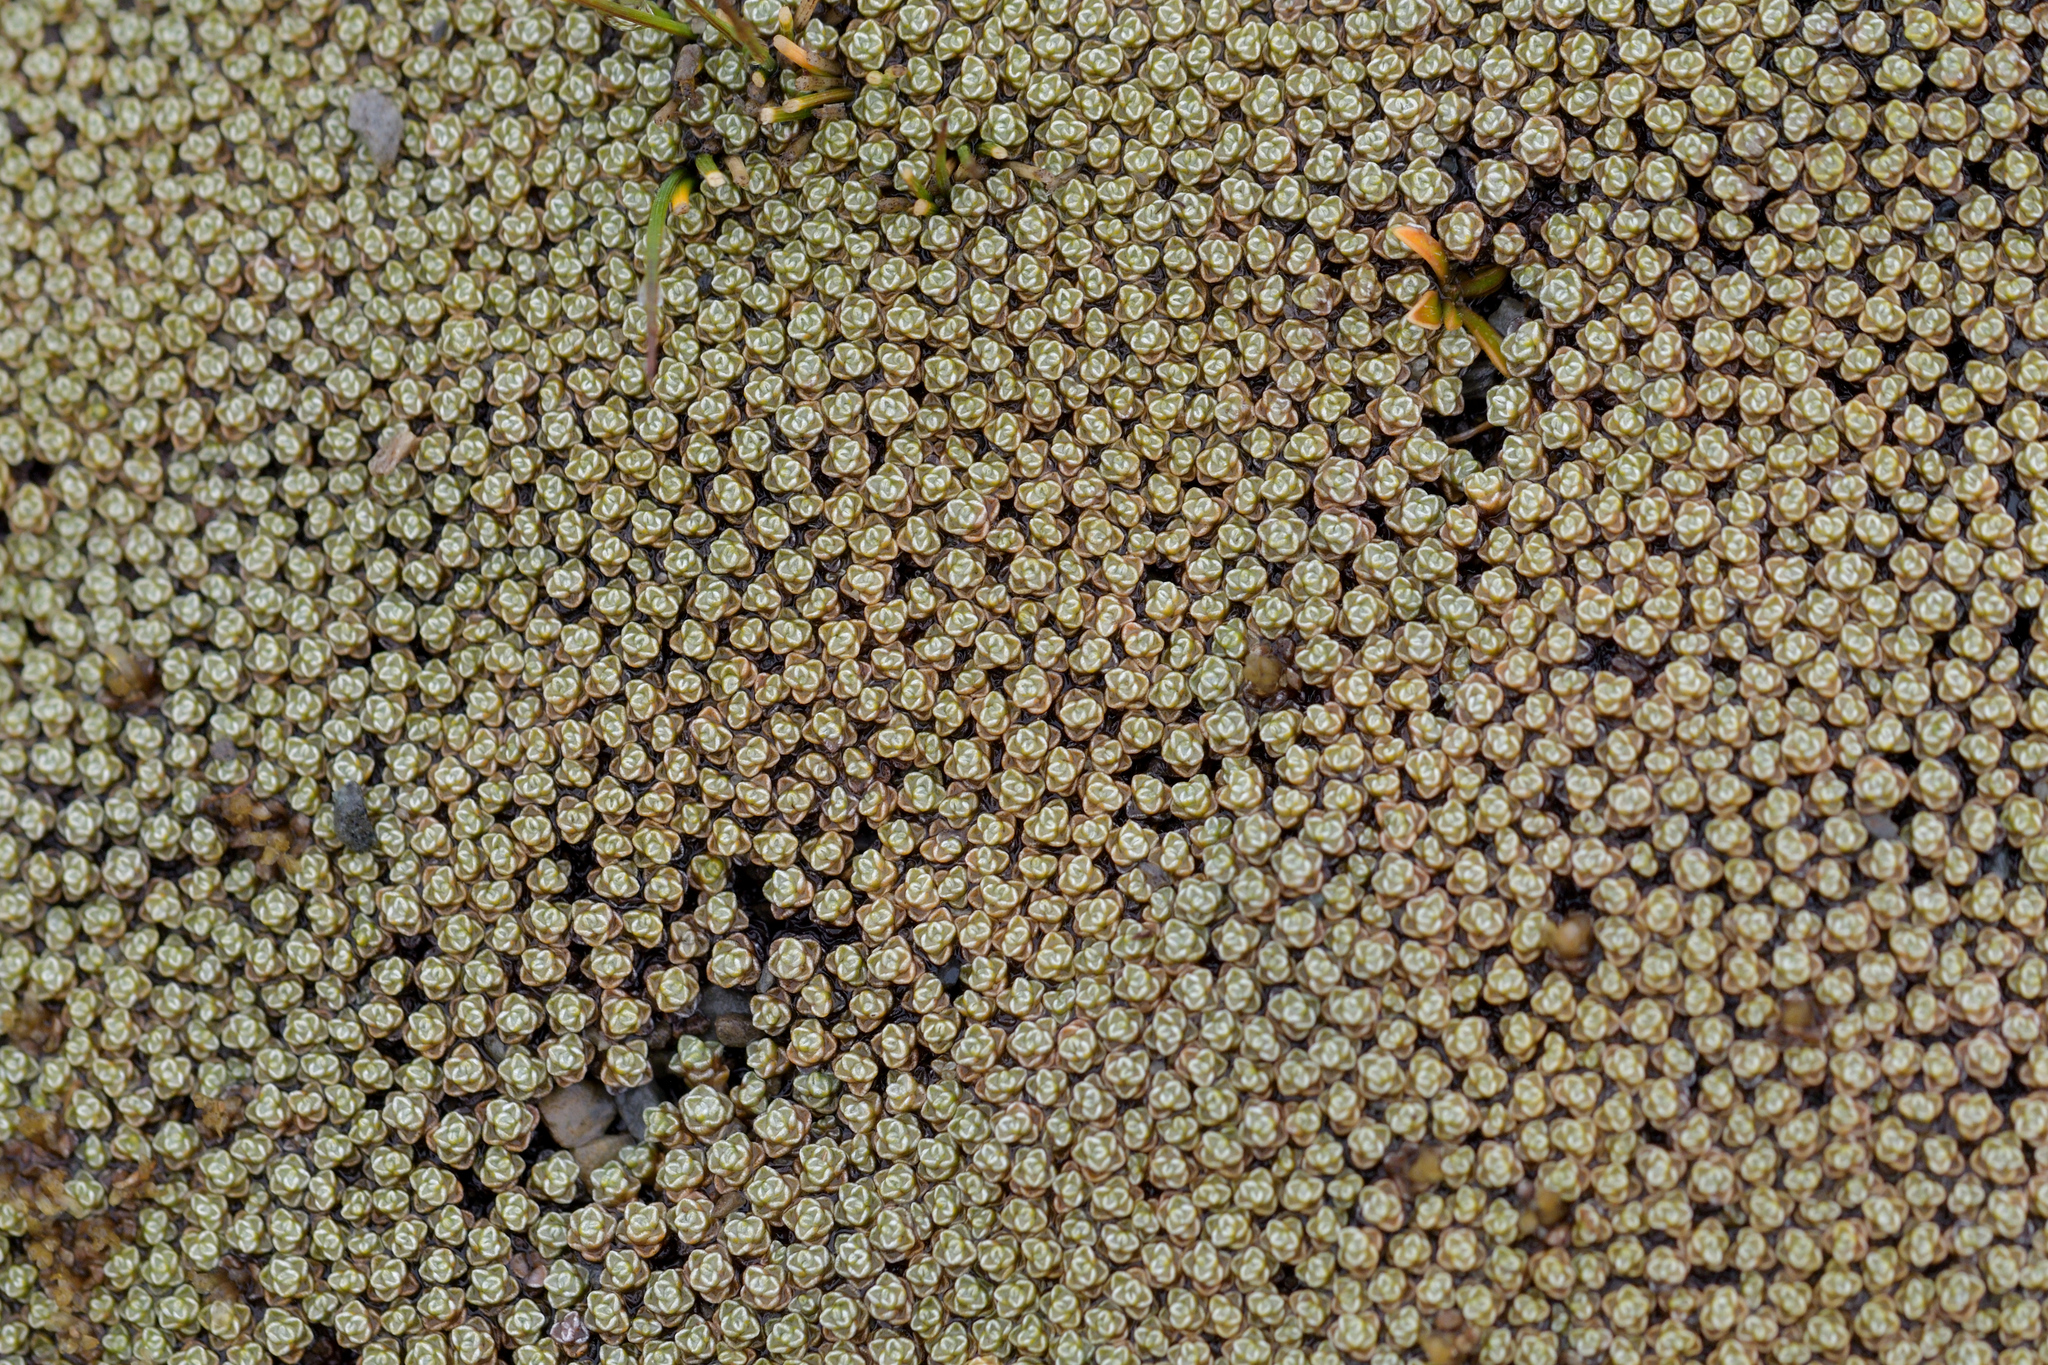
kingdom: Plantae
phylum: Tracheophyta
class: Magnoliopsida
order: Asterales
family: Asteraceae
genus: Raoulia
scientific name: Raoulia australis
